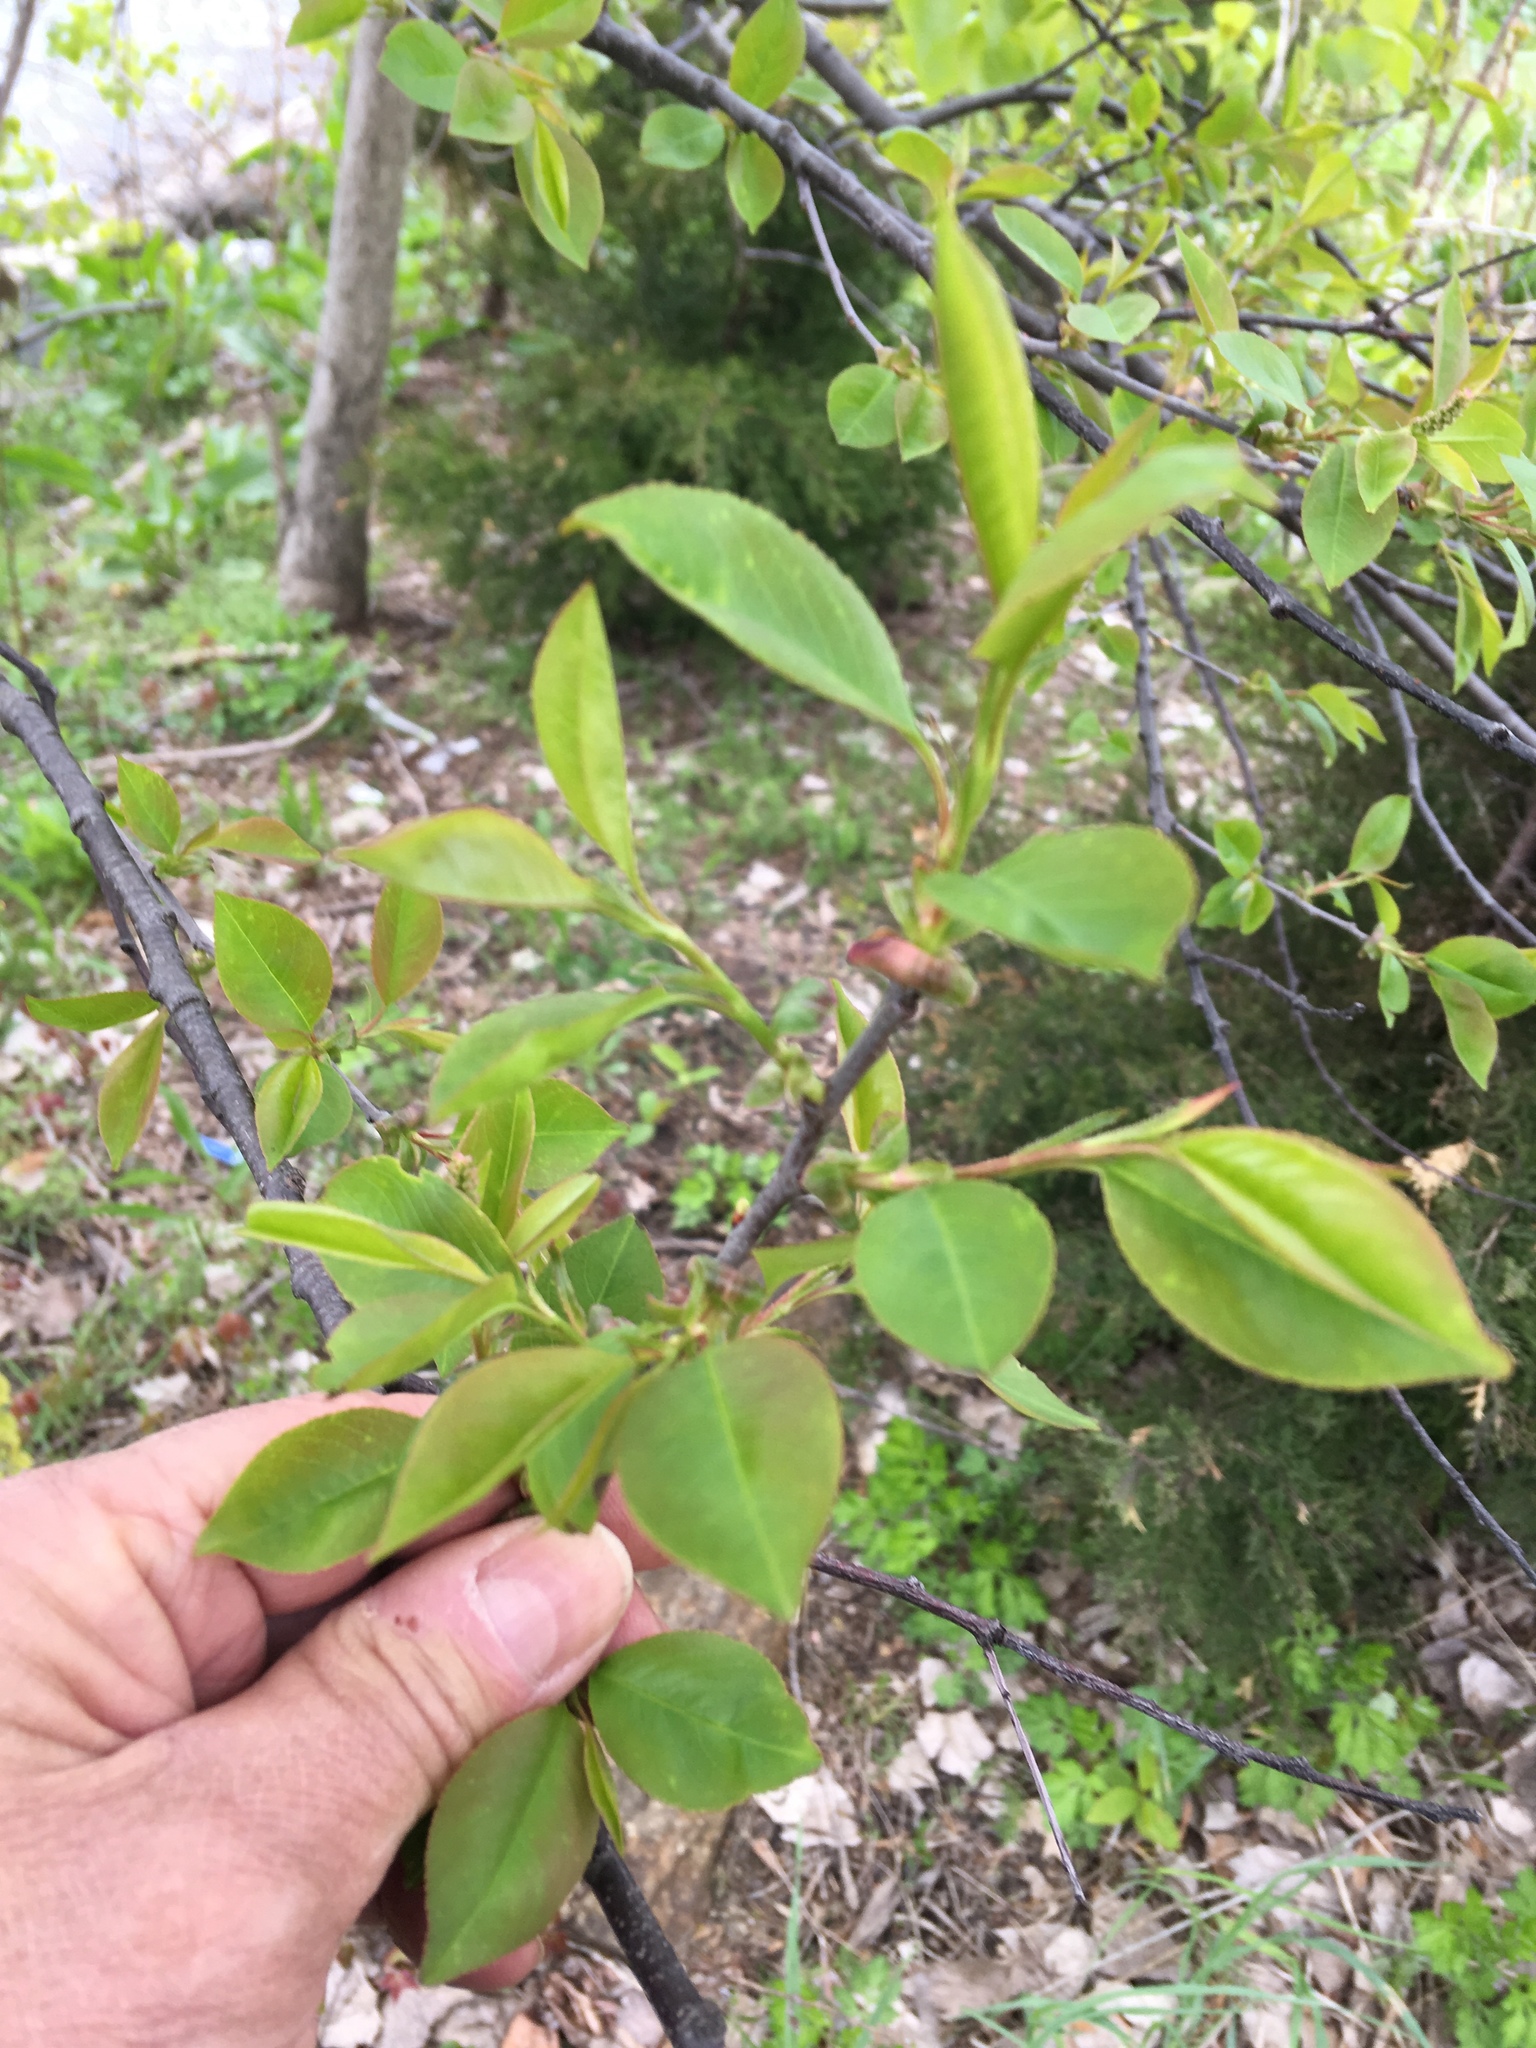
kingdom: Plantae
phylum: Tracheophyta
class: Magnoliopsida
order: Rosales
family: Rosaceae
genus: Prunus
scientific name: Prunus serotina
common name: Black cherry
